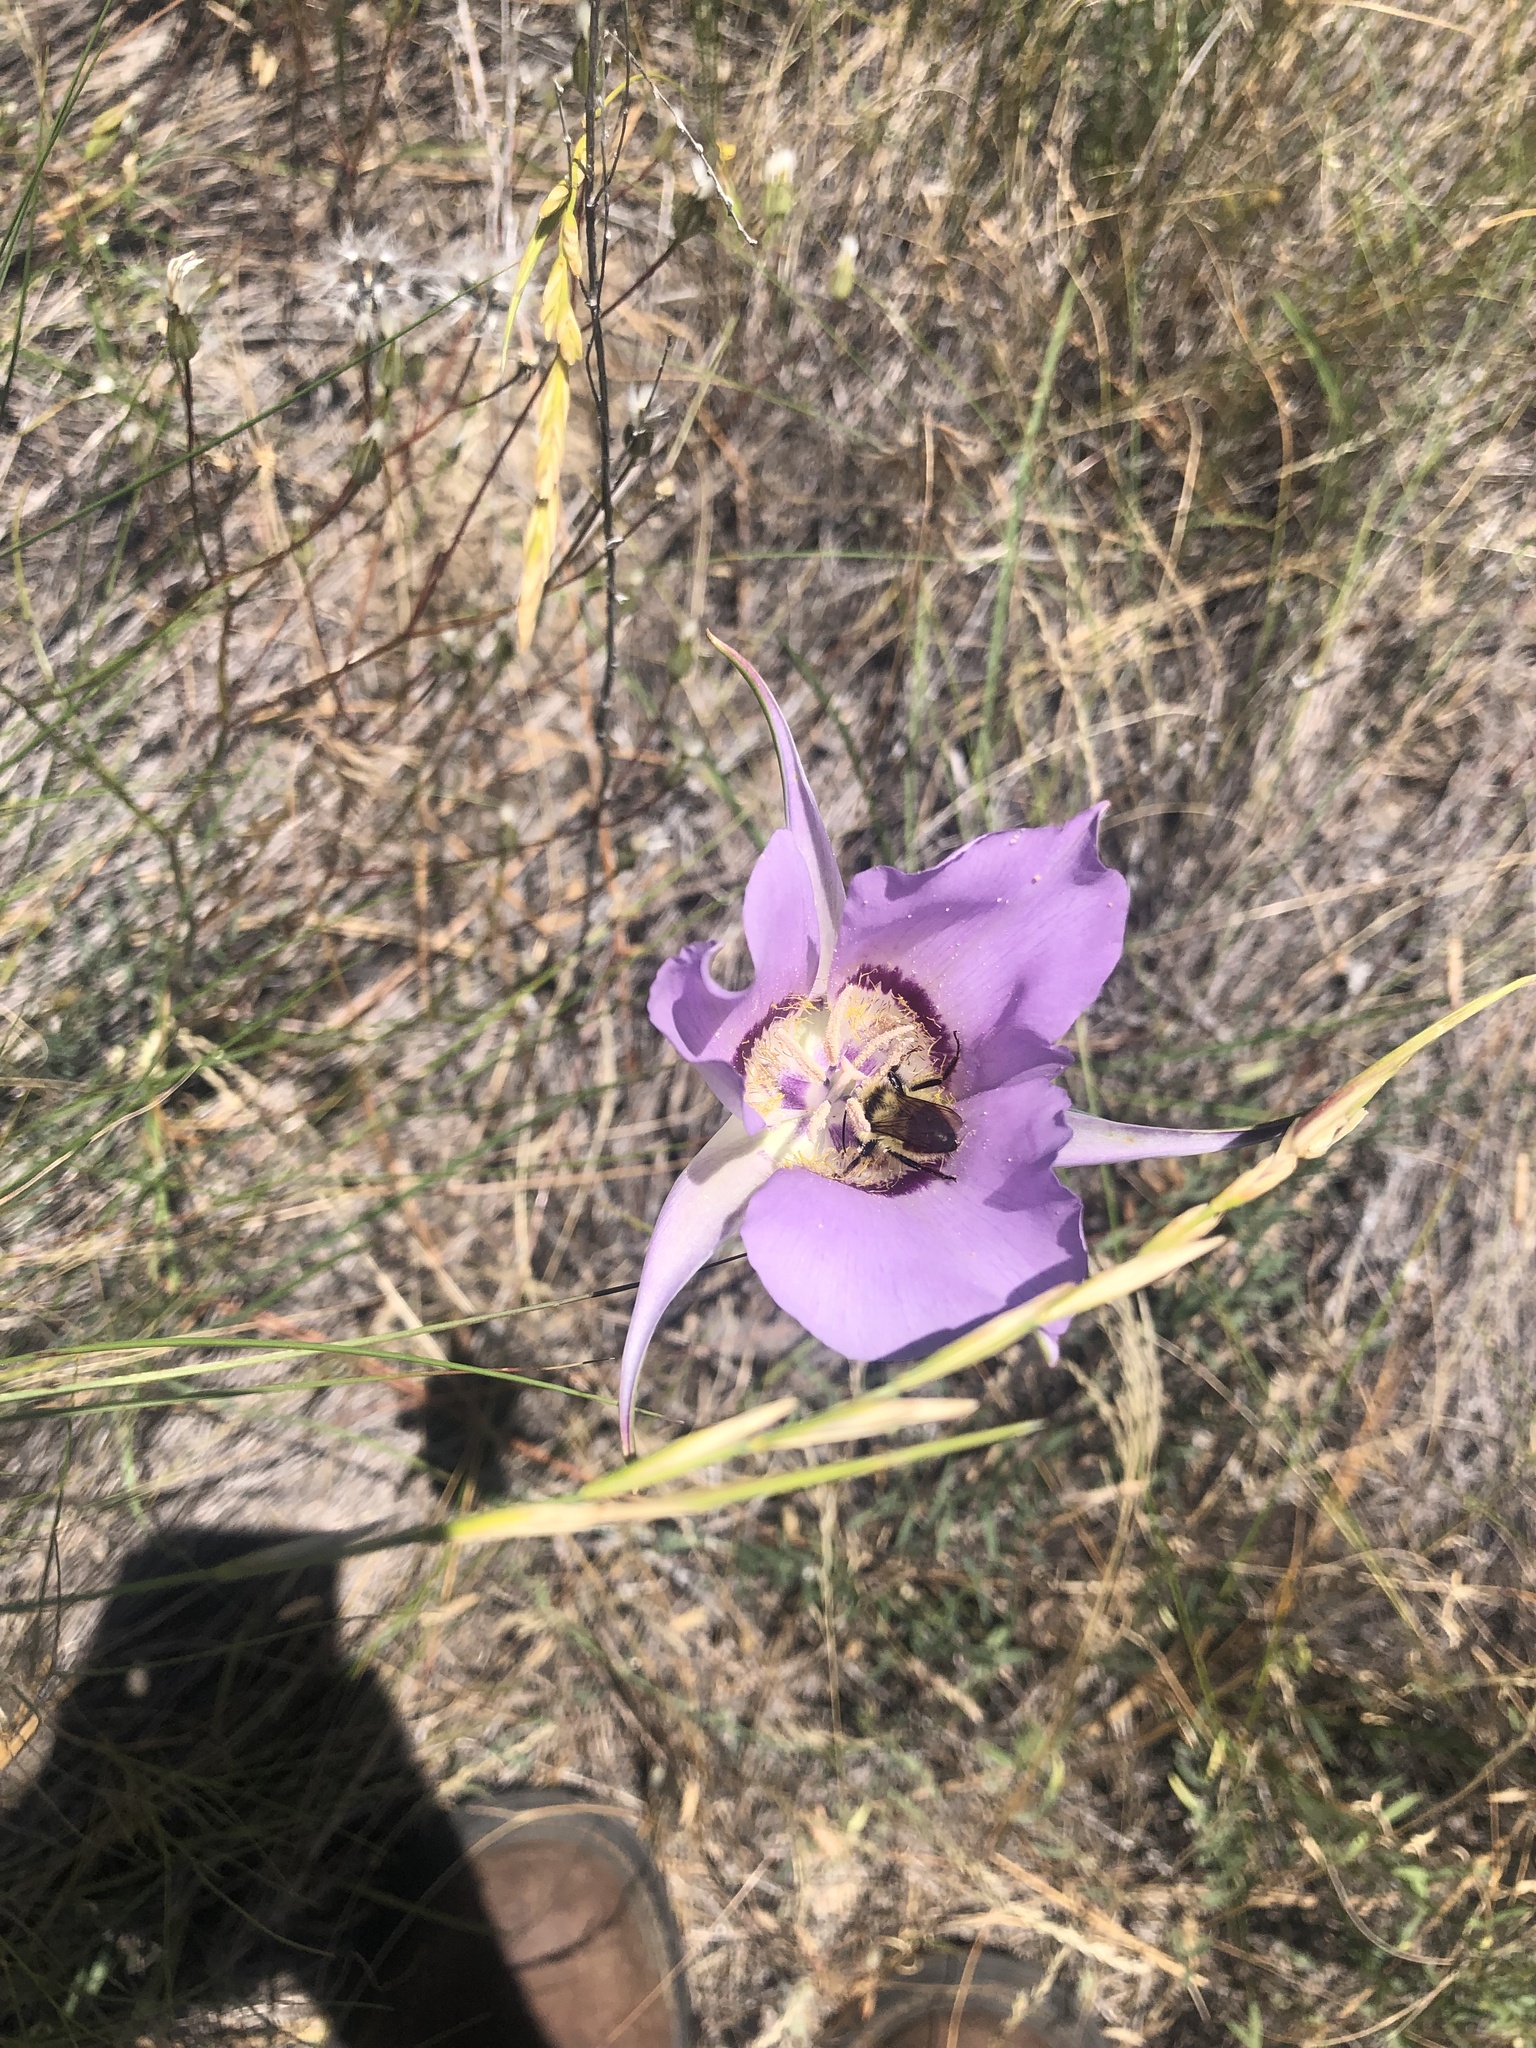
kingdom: Plantae
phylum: Tracheophyta
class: Liliopsida
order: Liliales
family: Liliaceae
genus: Calochortus
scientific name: Calochortus macrocarpus
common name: Green-band mariposa lily
